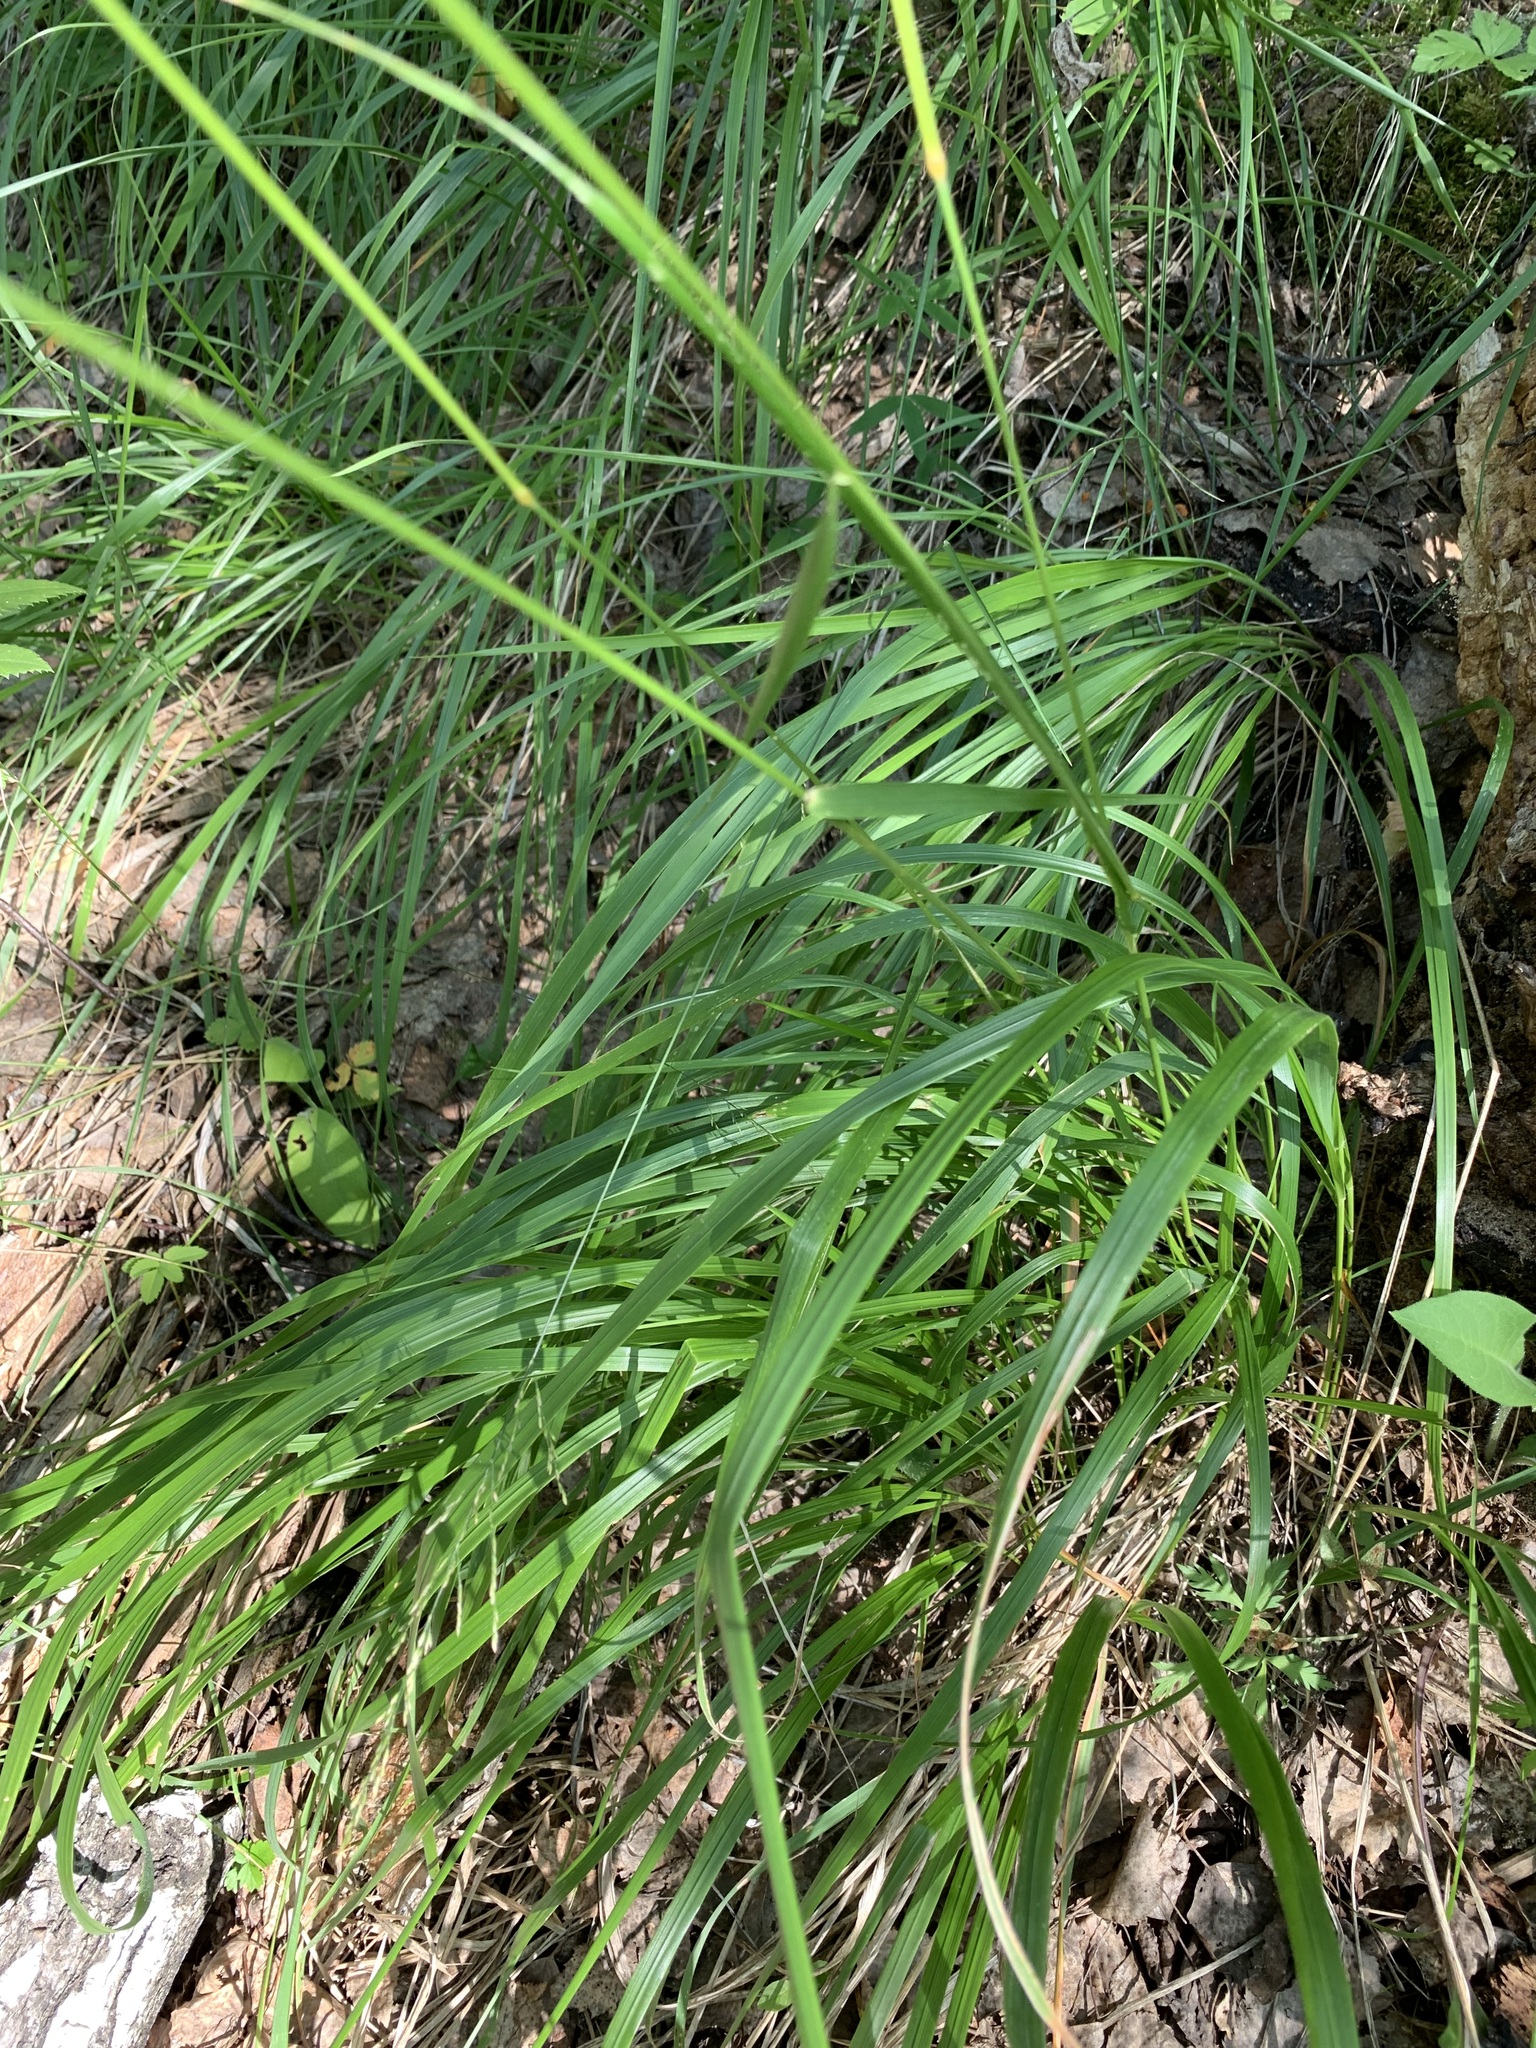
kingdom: Plantae
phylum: Tracheophyta
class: Liliopsida
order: Poales
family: Poaceae
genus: Calamagrostis
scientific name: Calamagrostis arundinacea
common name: Metskastik
